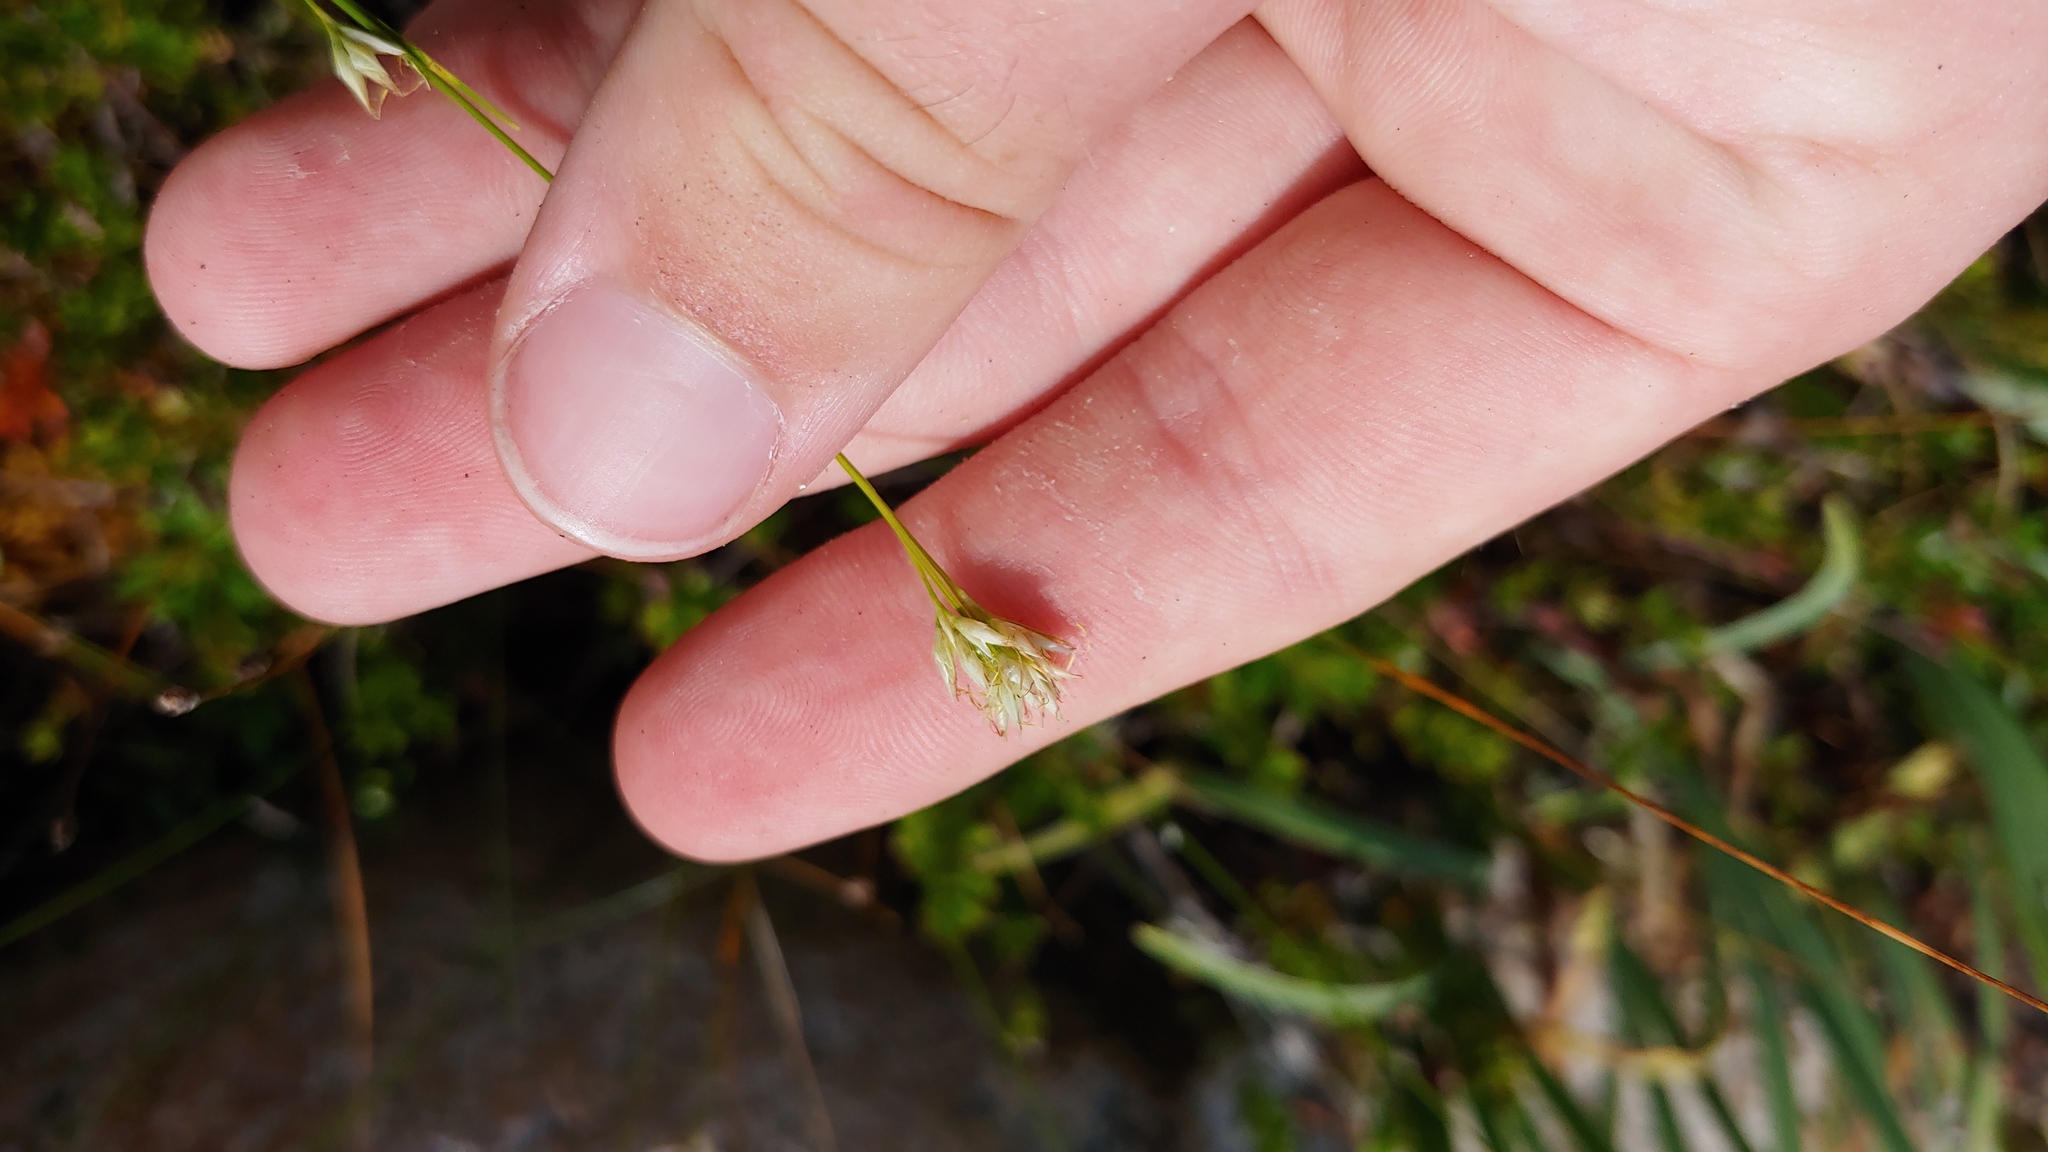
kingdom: Plantae
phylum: Tracheophyta
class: Liliopsida
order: Poales
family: Cyperaceae
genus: Rhynchospora
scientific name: Rhynchospora alba
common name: White beak-sedge
